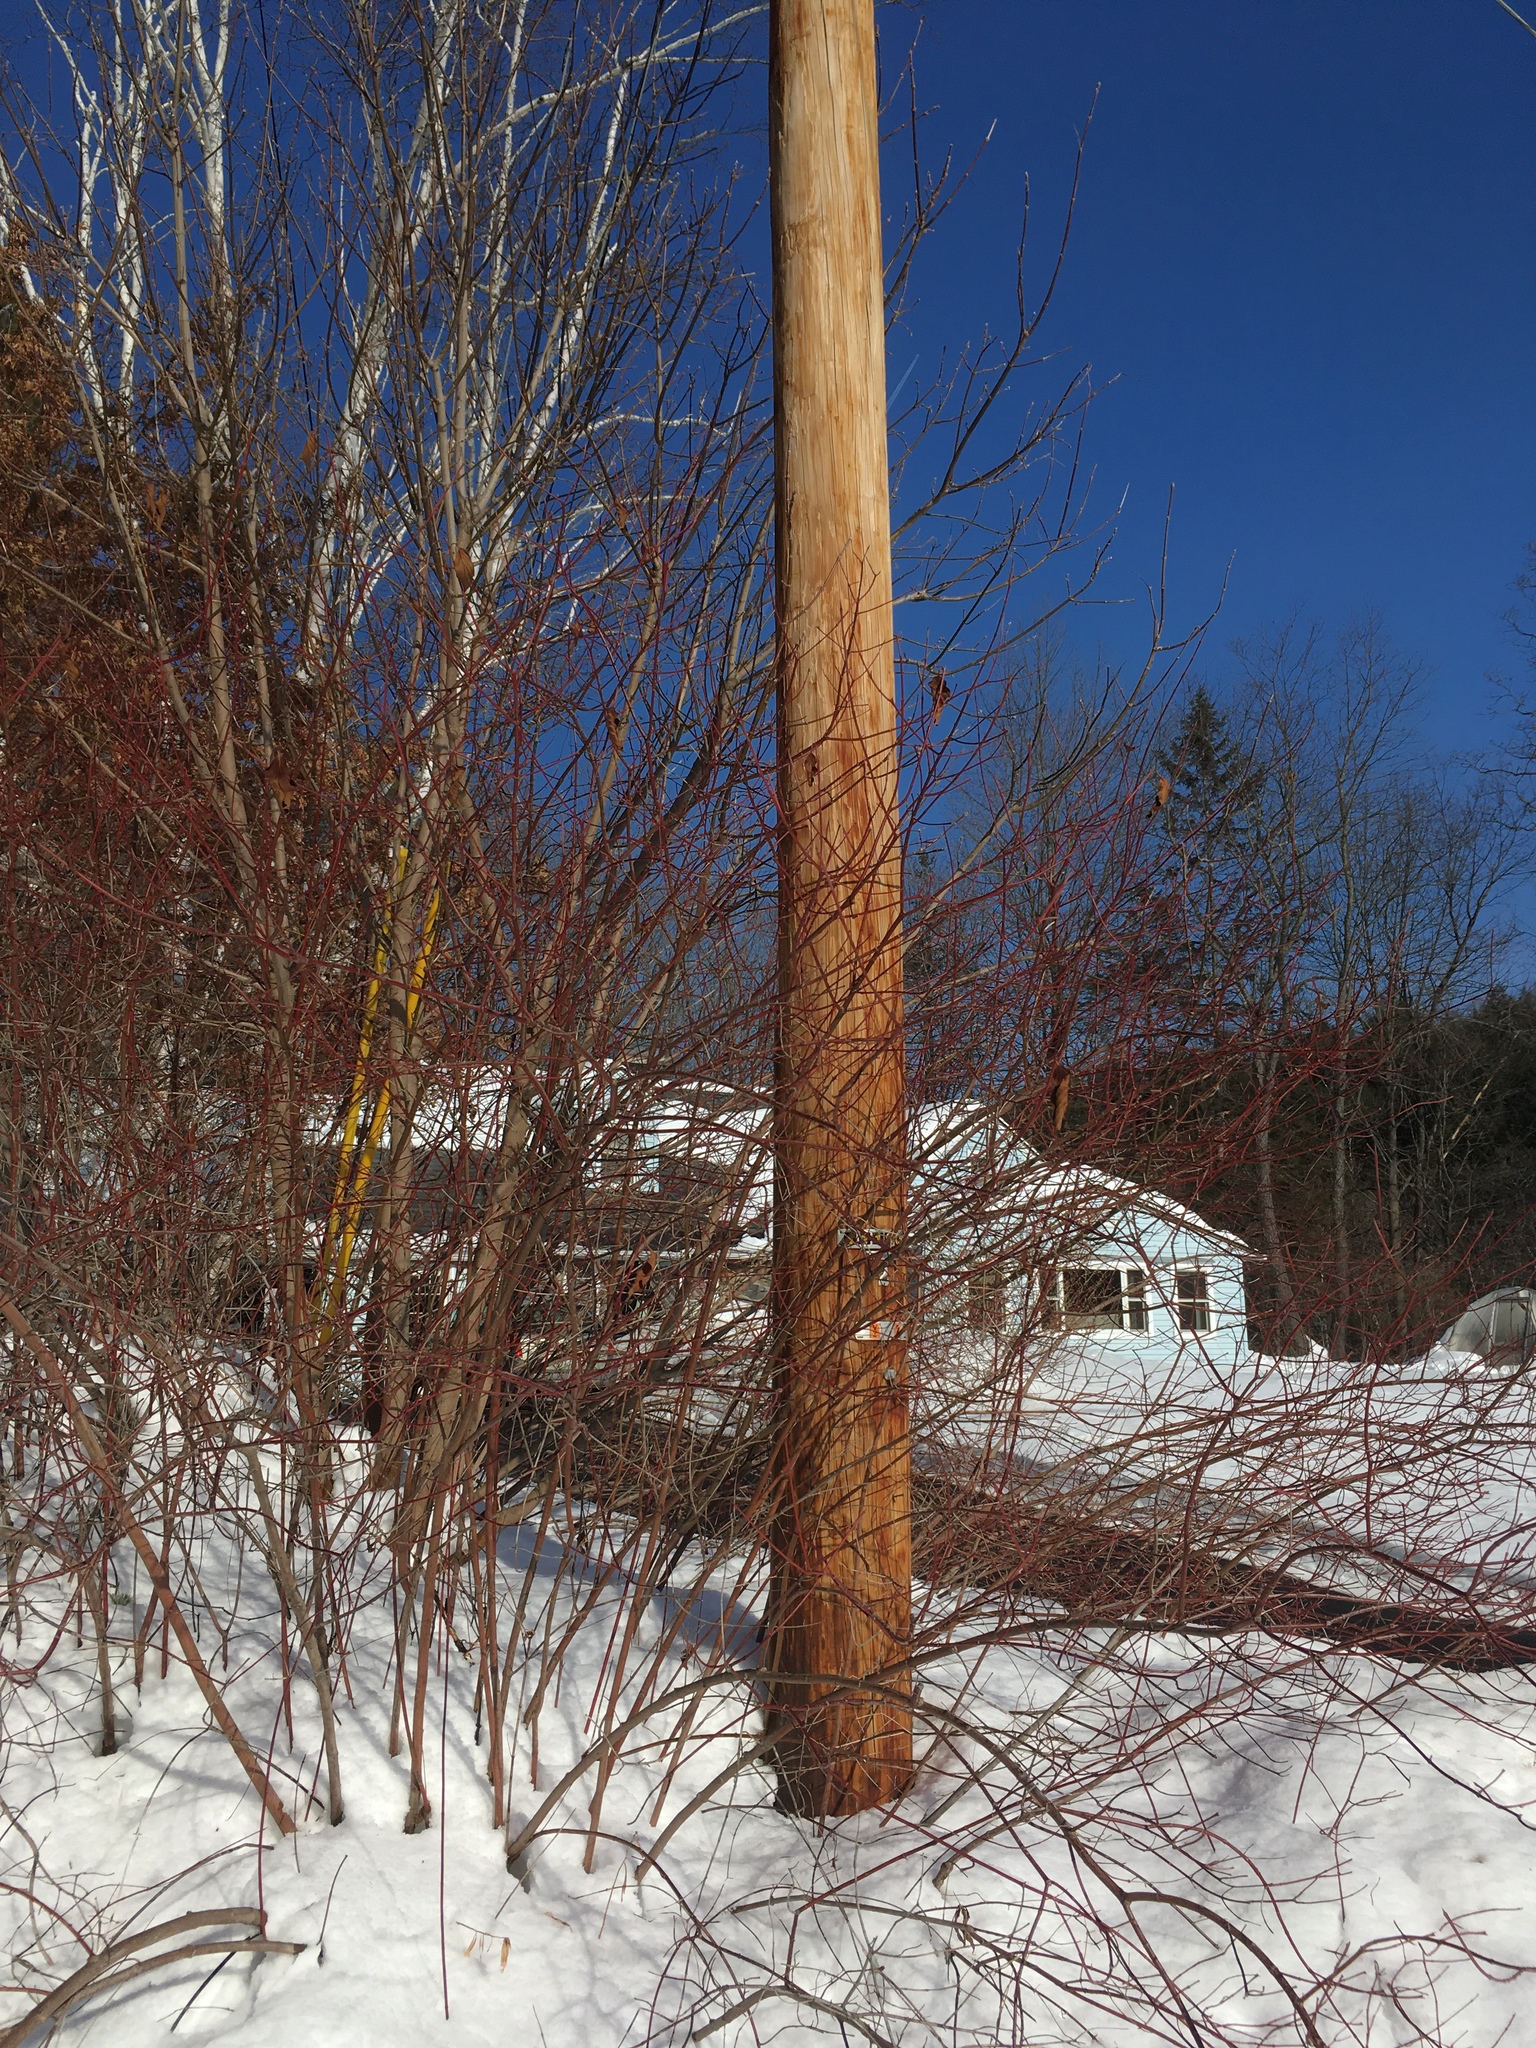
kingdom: Plantae
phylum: Tracheophyta
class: Magnoliopsida
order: Cornales
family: Cornaceae
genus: Cornus
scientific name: Cornus sericea
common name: Red-osier dogwood
